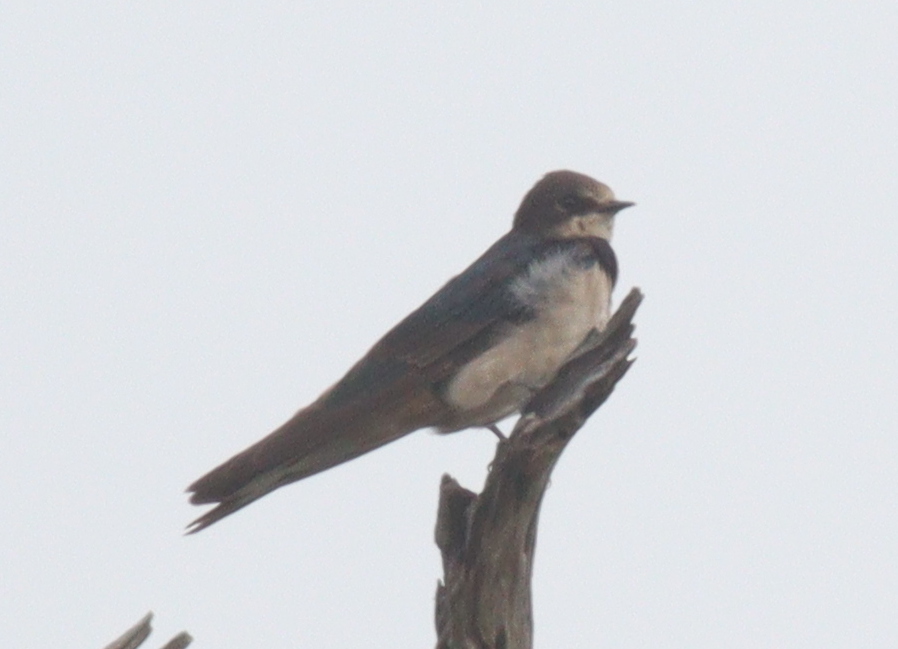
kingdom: Animalia
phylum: Chordata
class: Aves
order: Passeriformes
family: Hirundinidae
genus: Hirundo
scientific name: Hirundo rustica
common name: Barn swallow
